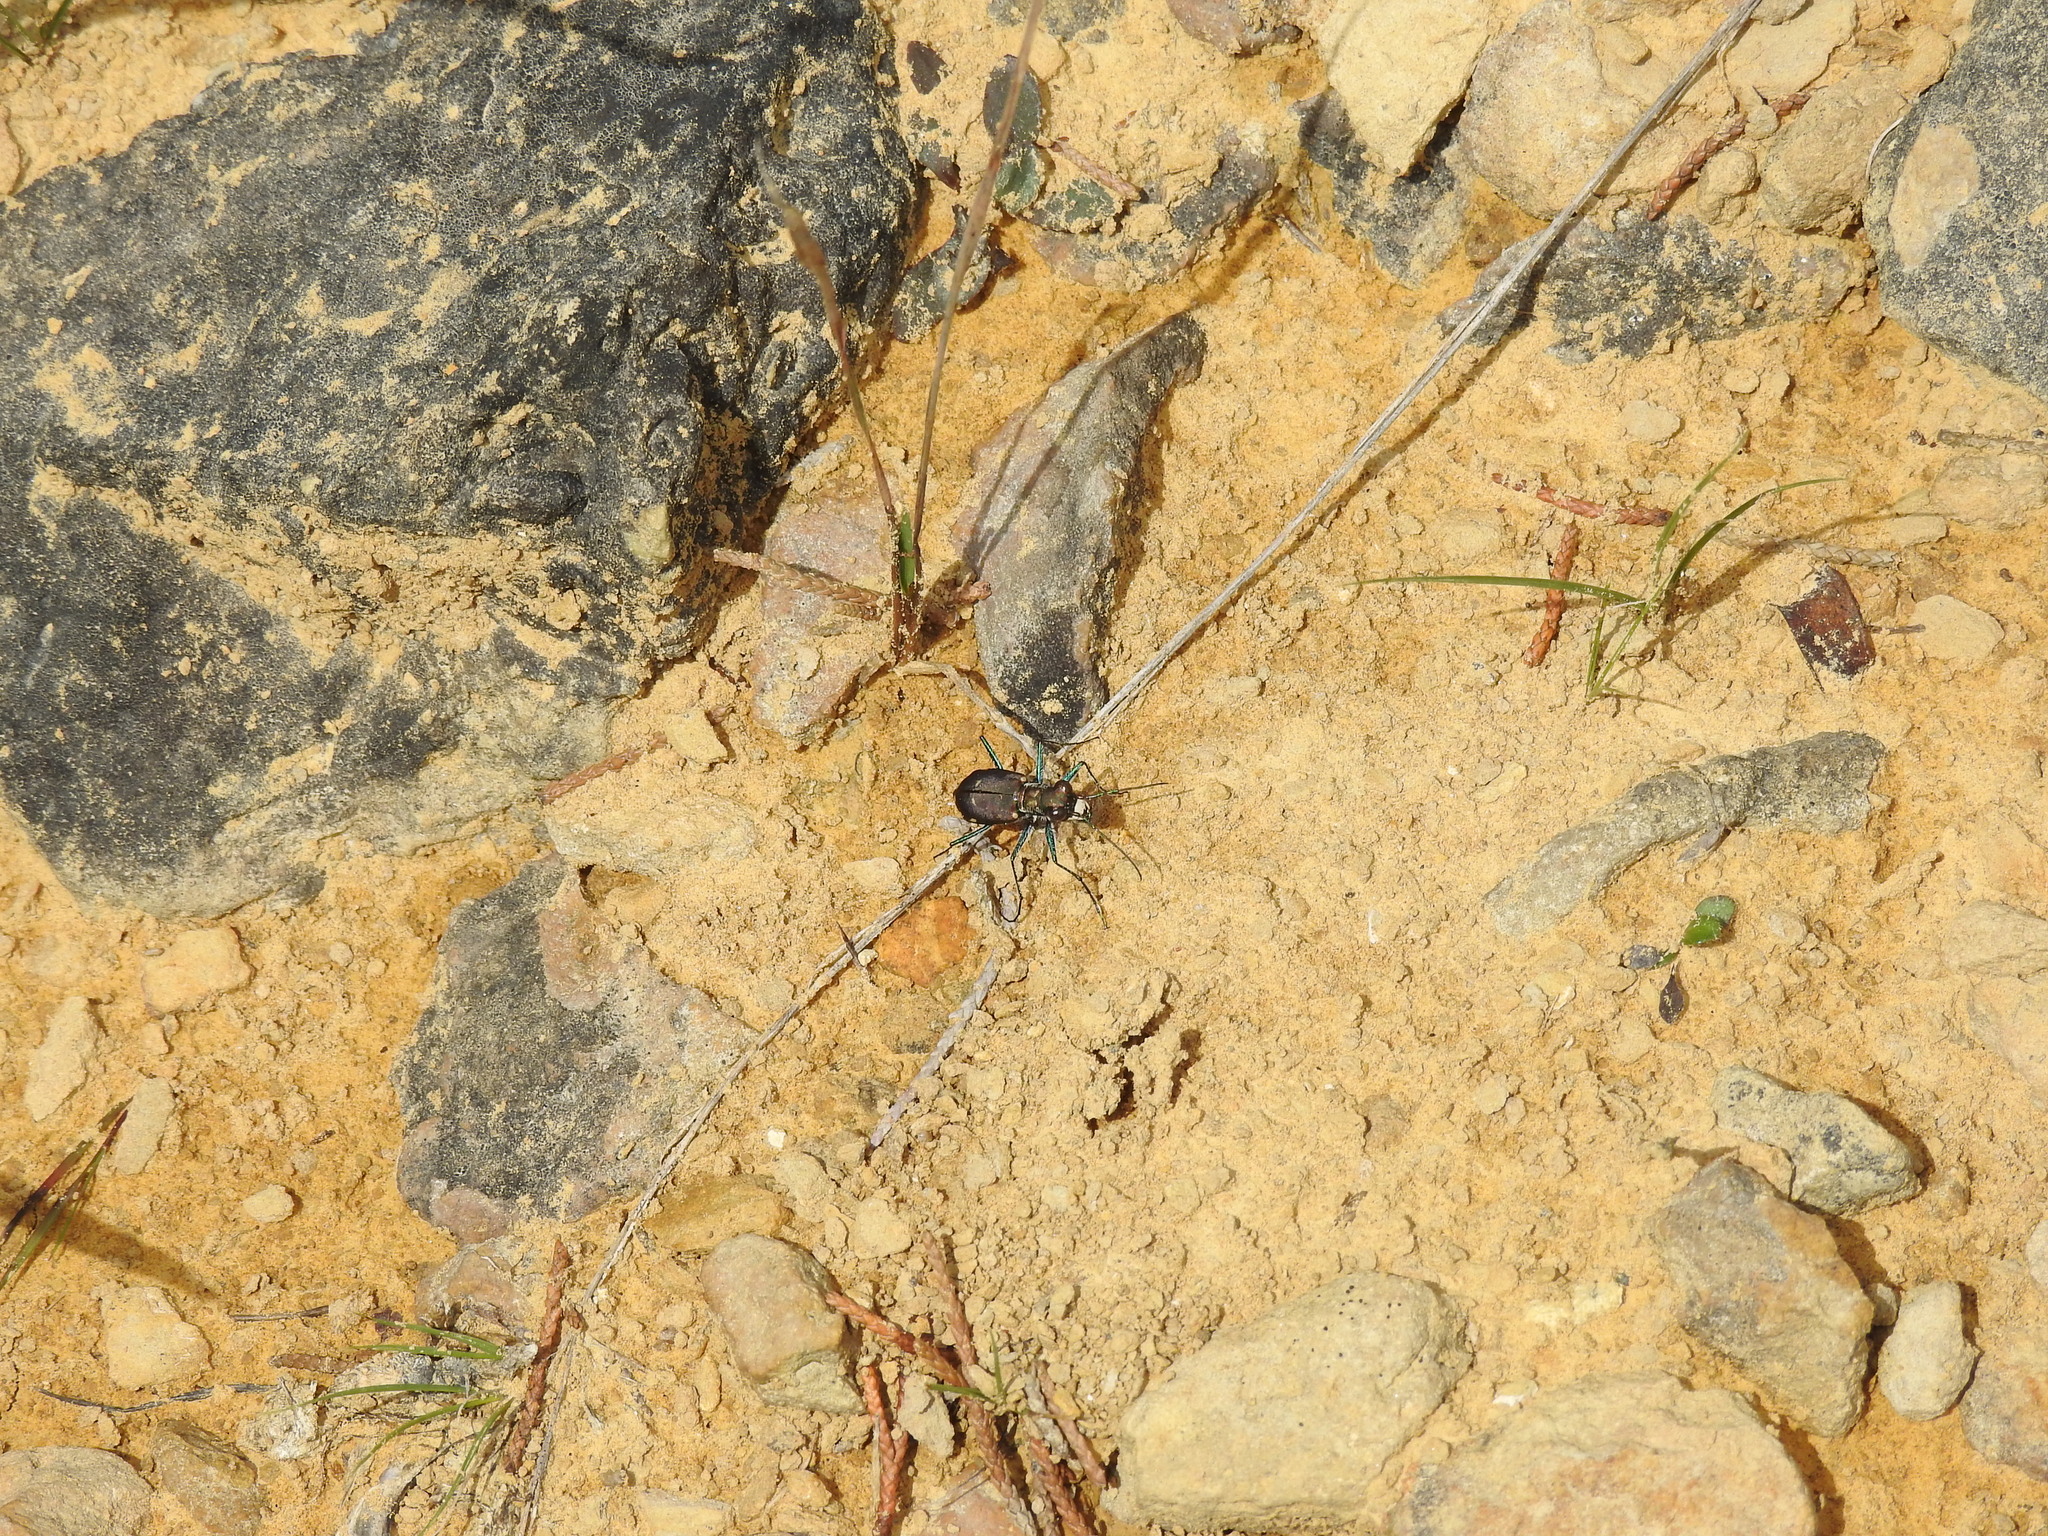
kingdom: Animalia
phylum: Arthropoda
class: Insecta
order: Coleoptera
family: Carabidae
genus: Cicindela
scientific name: Cicindela rufiventris
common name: Eastern red-bellied tiger beetle
